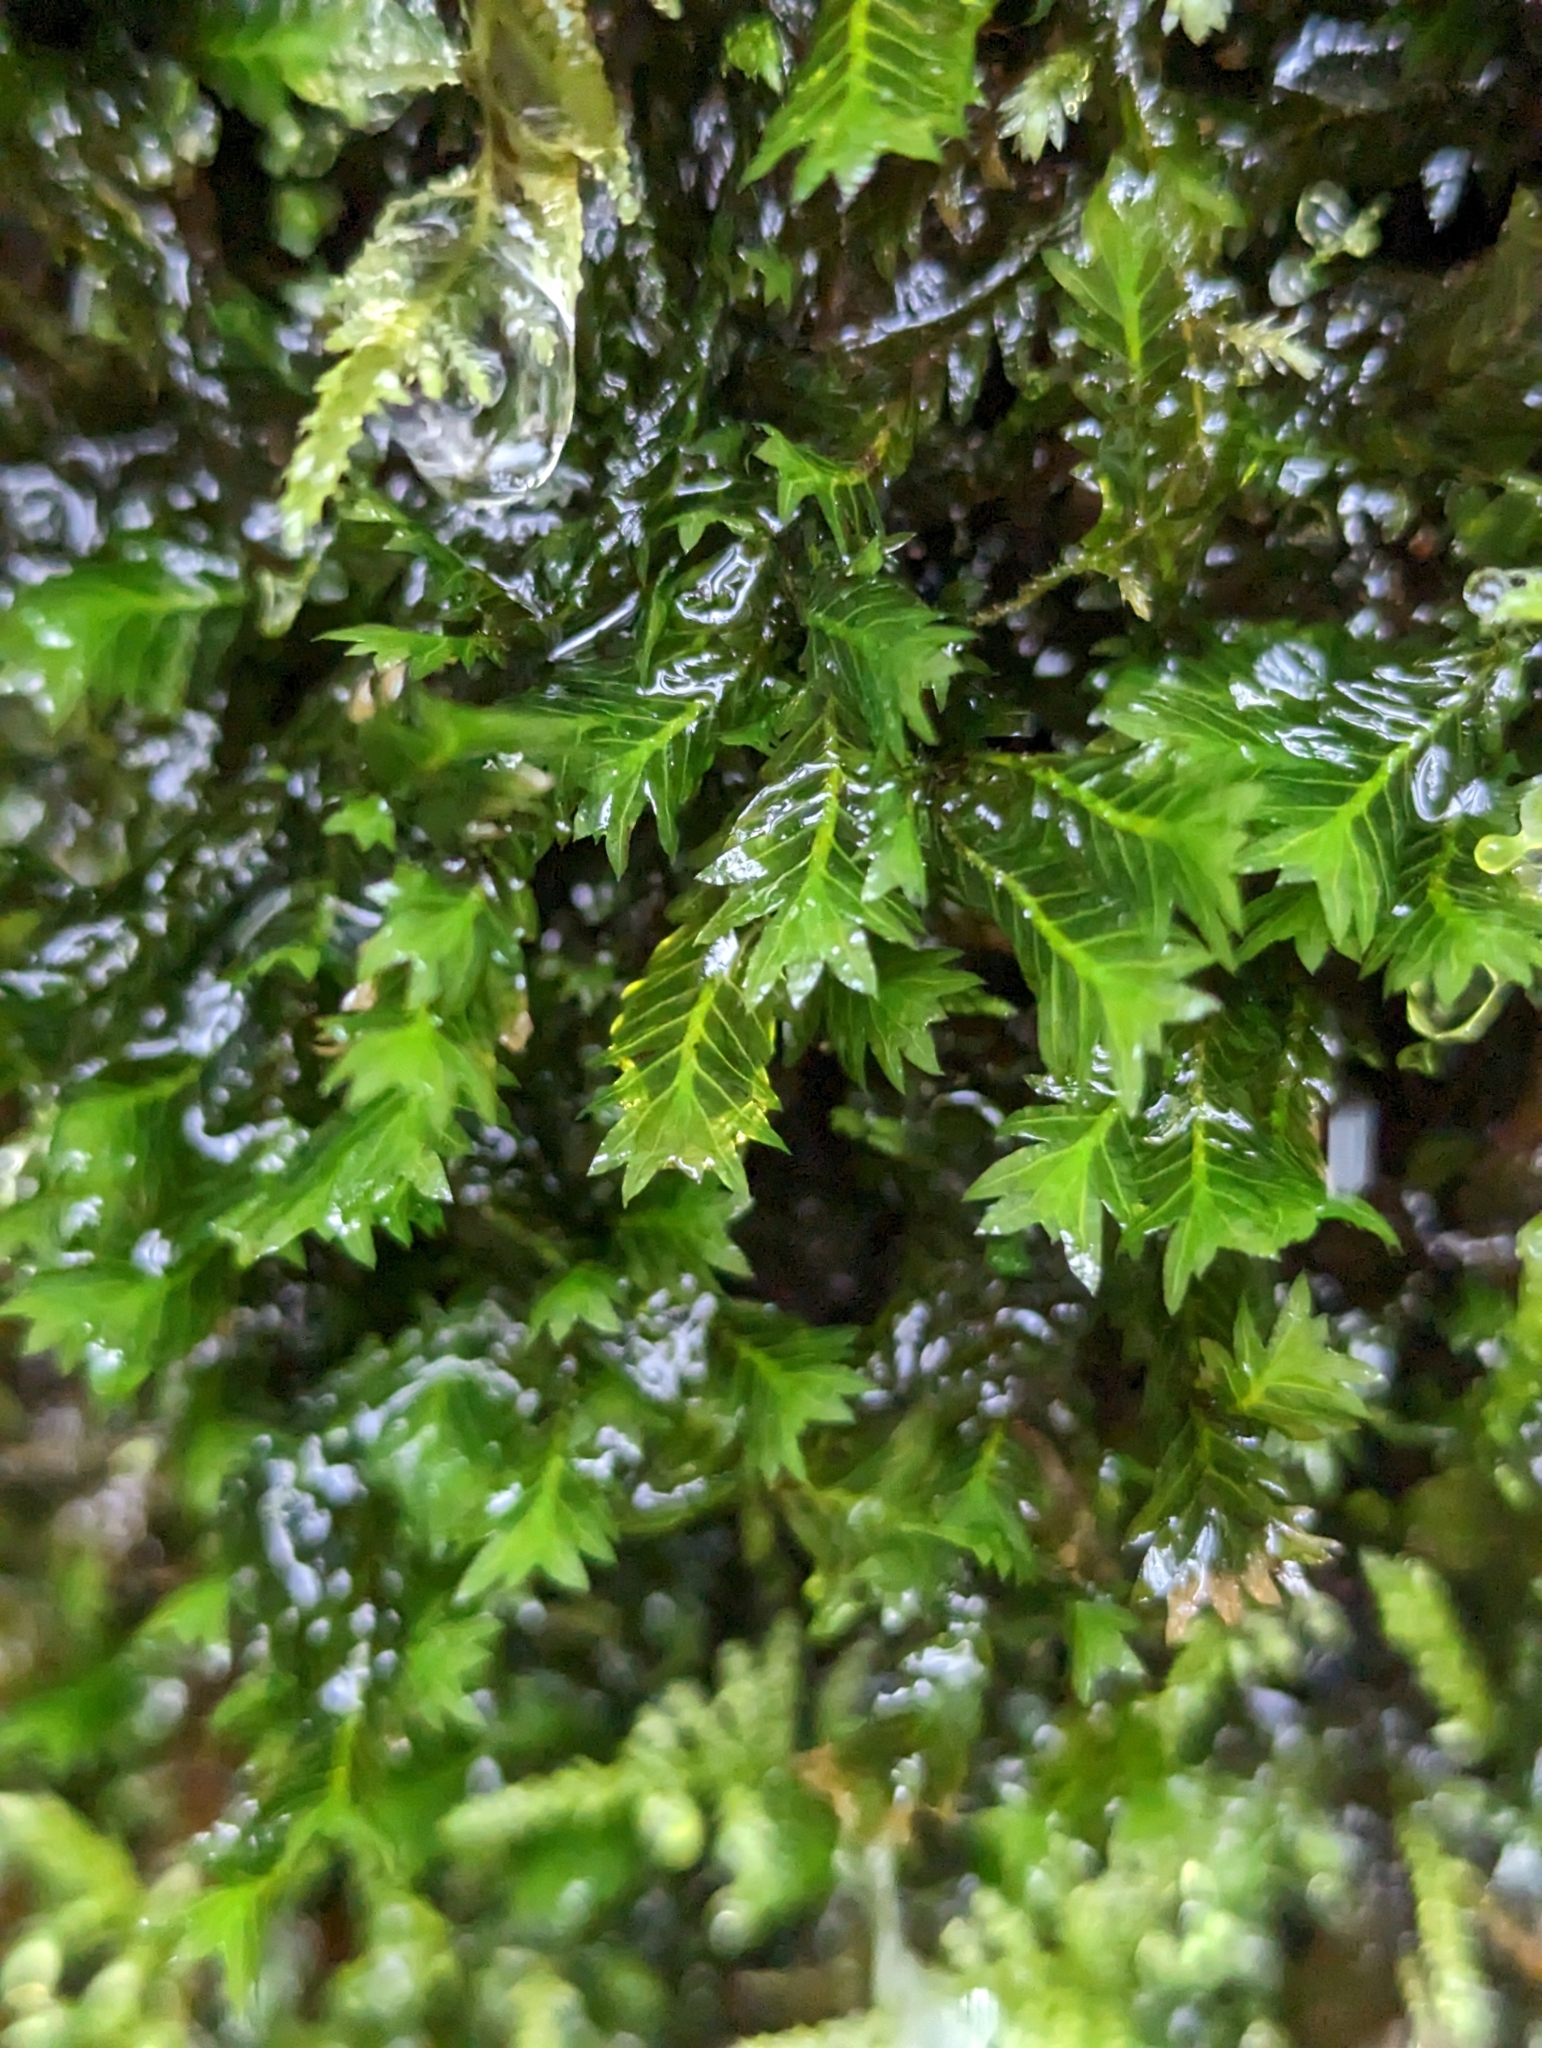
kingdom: Plantae
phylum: Bryophyta
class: Bryopsida
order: Dicranales
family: Fissidentaceae
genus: Fissidens
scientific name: Fissidens adianthoides
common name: Maidenhair pocket moss
